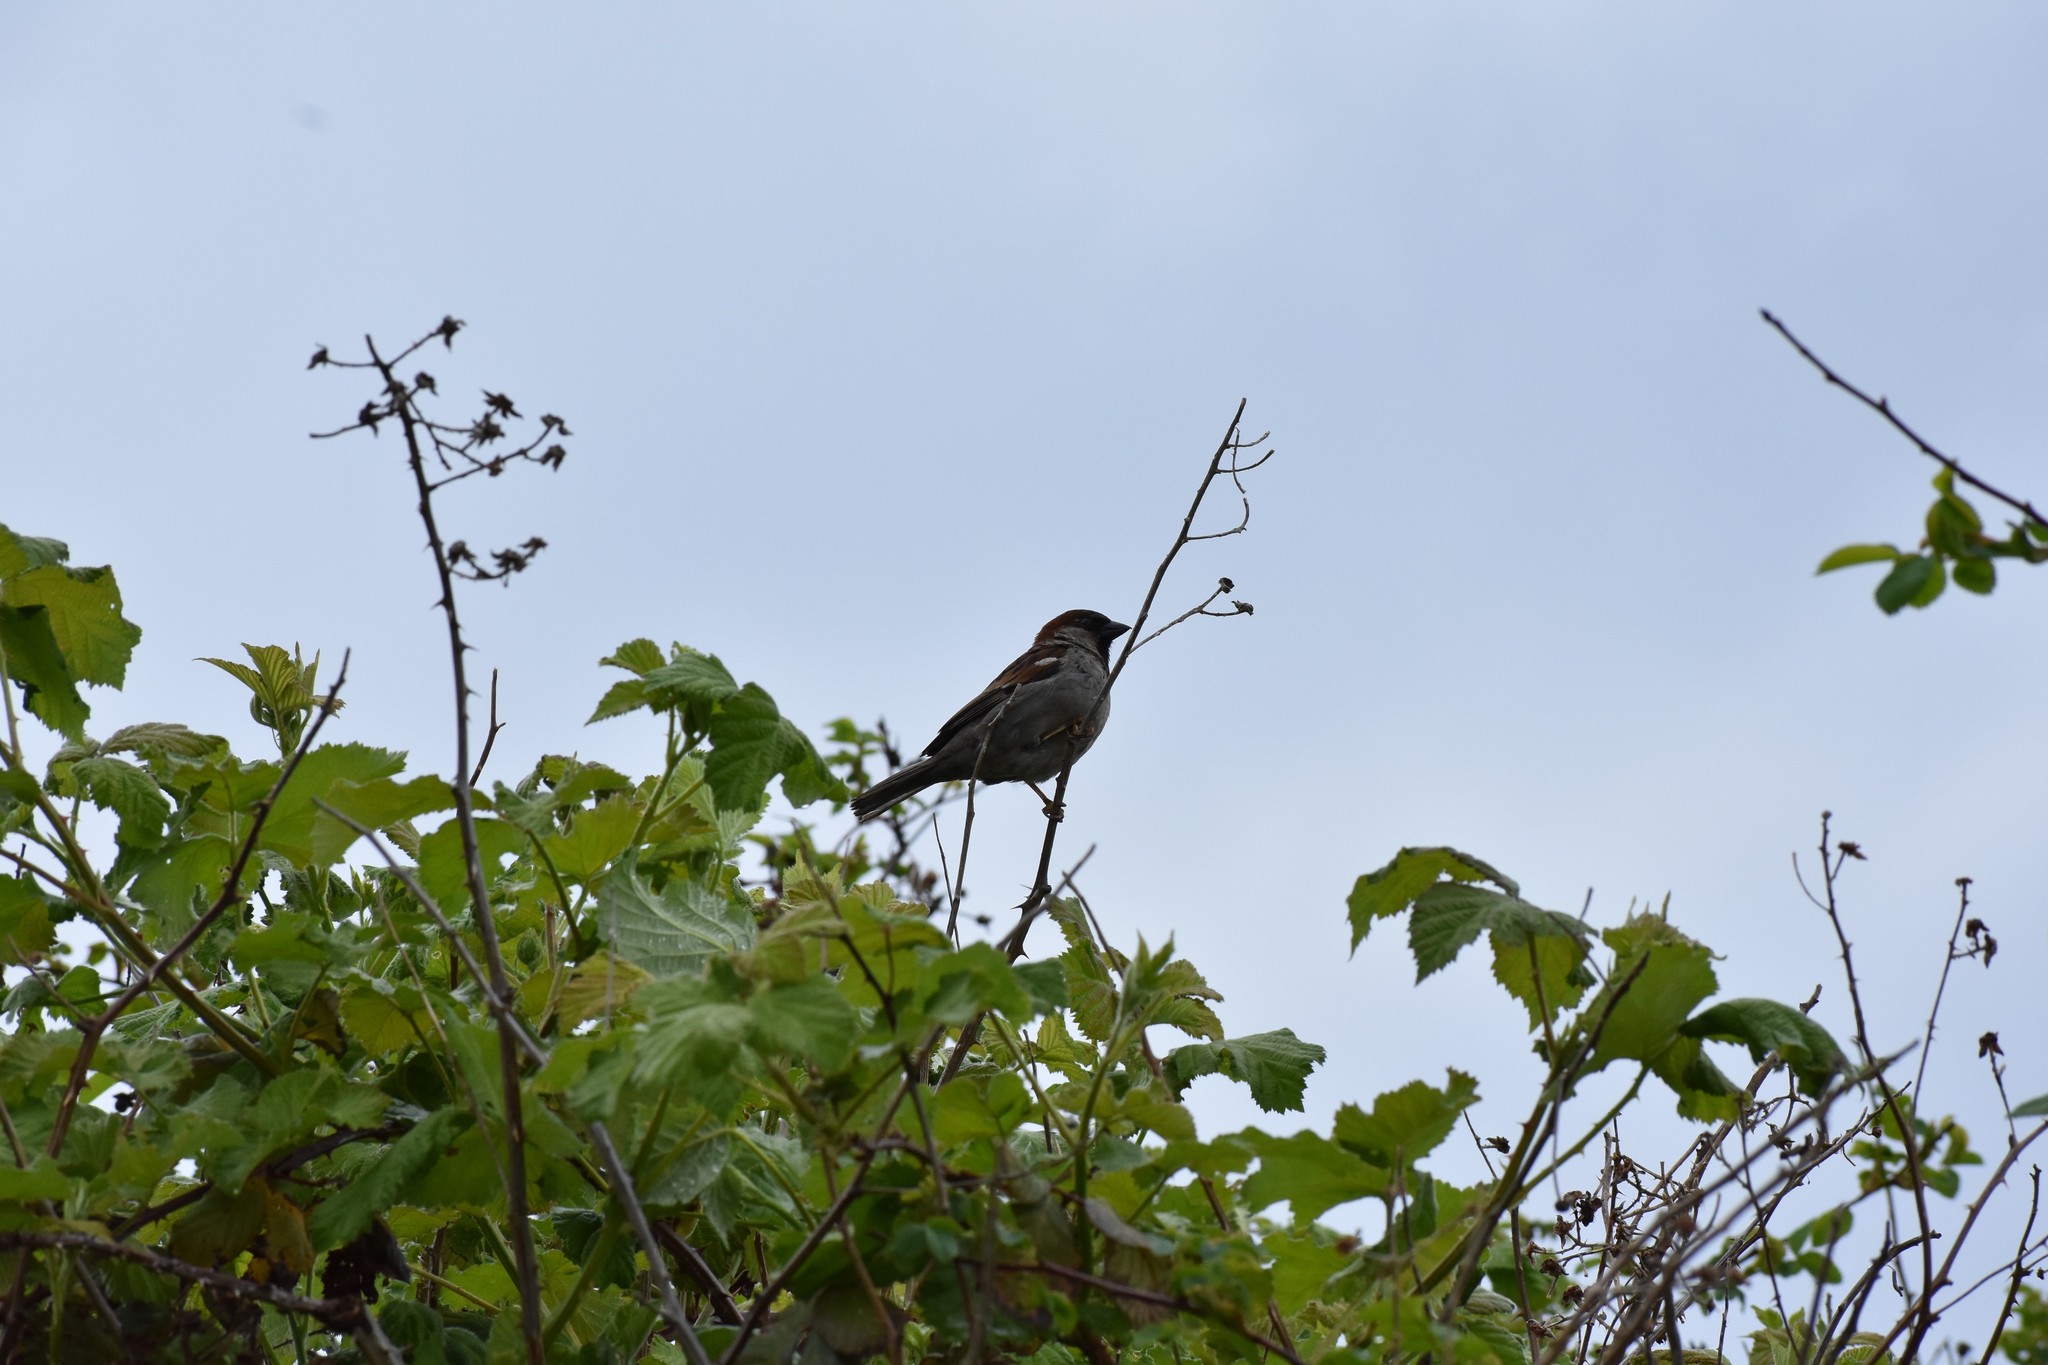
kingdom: Animalia
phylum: Chordata
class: Aves
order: Passeriformes
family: Passeridae
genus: Passer
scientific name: Passer domesticus
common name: House sparrow
